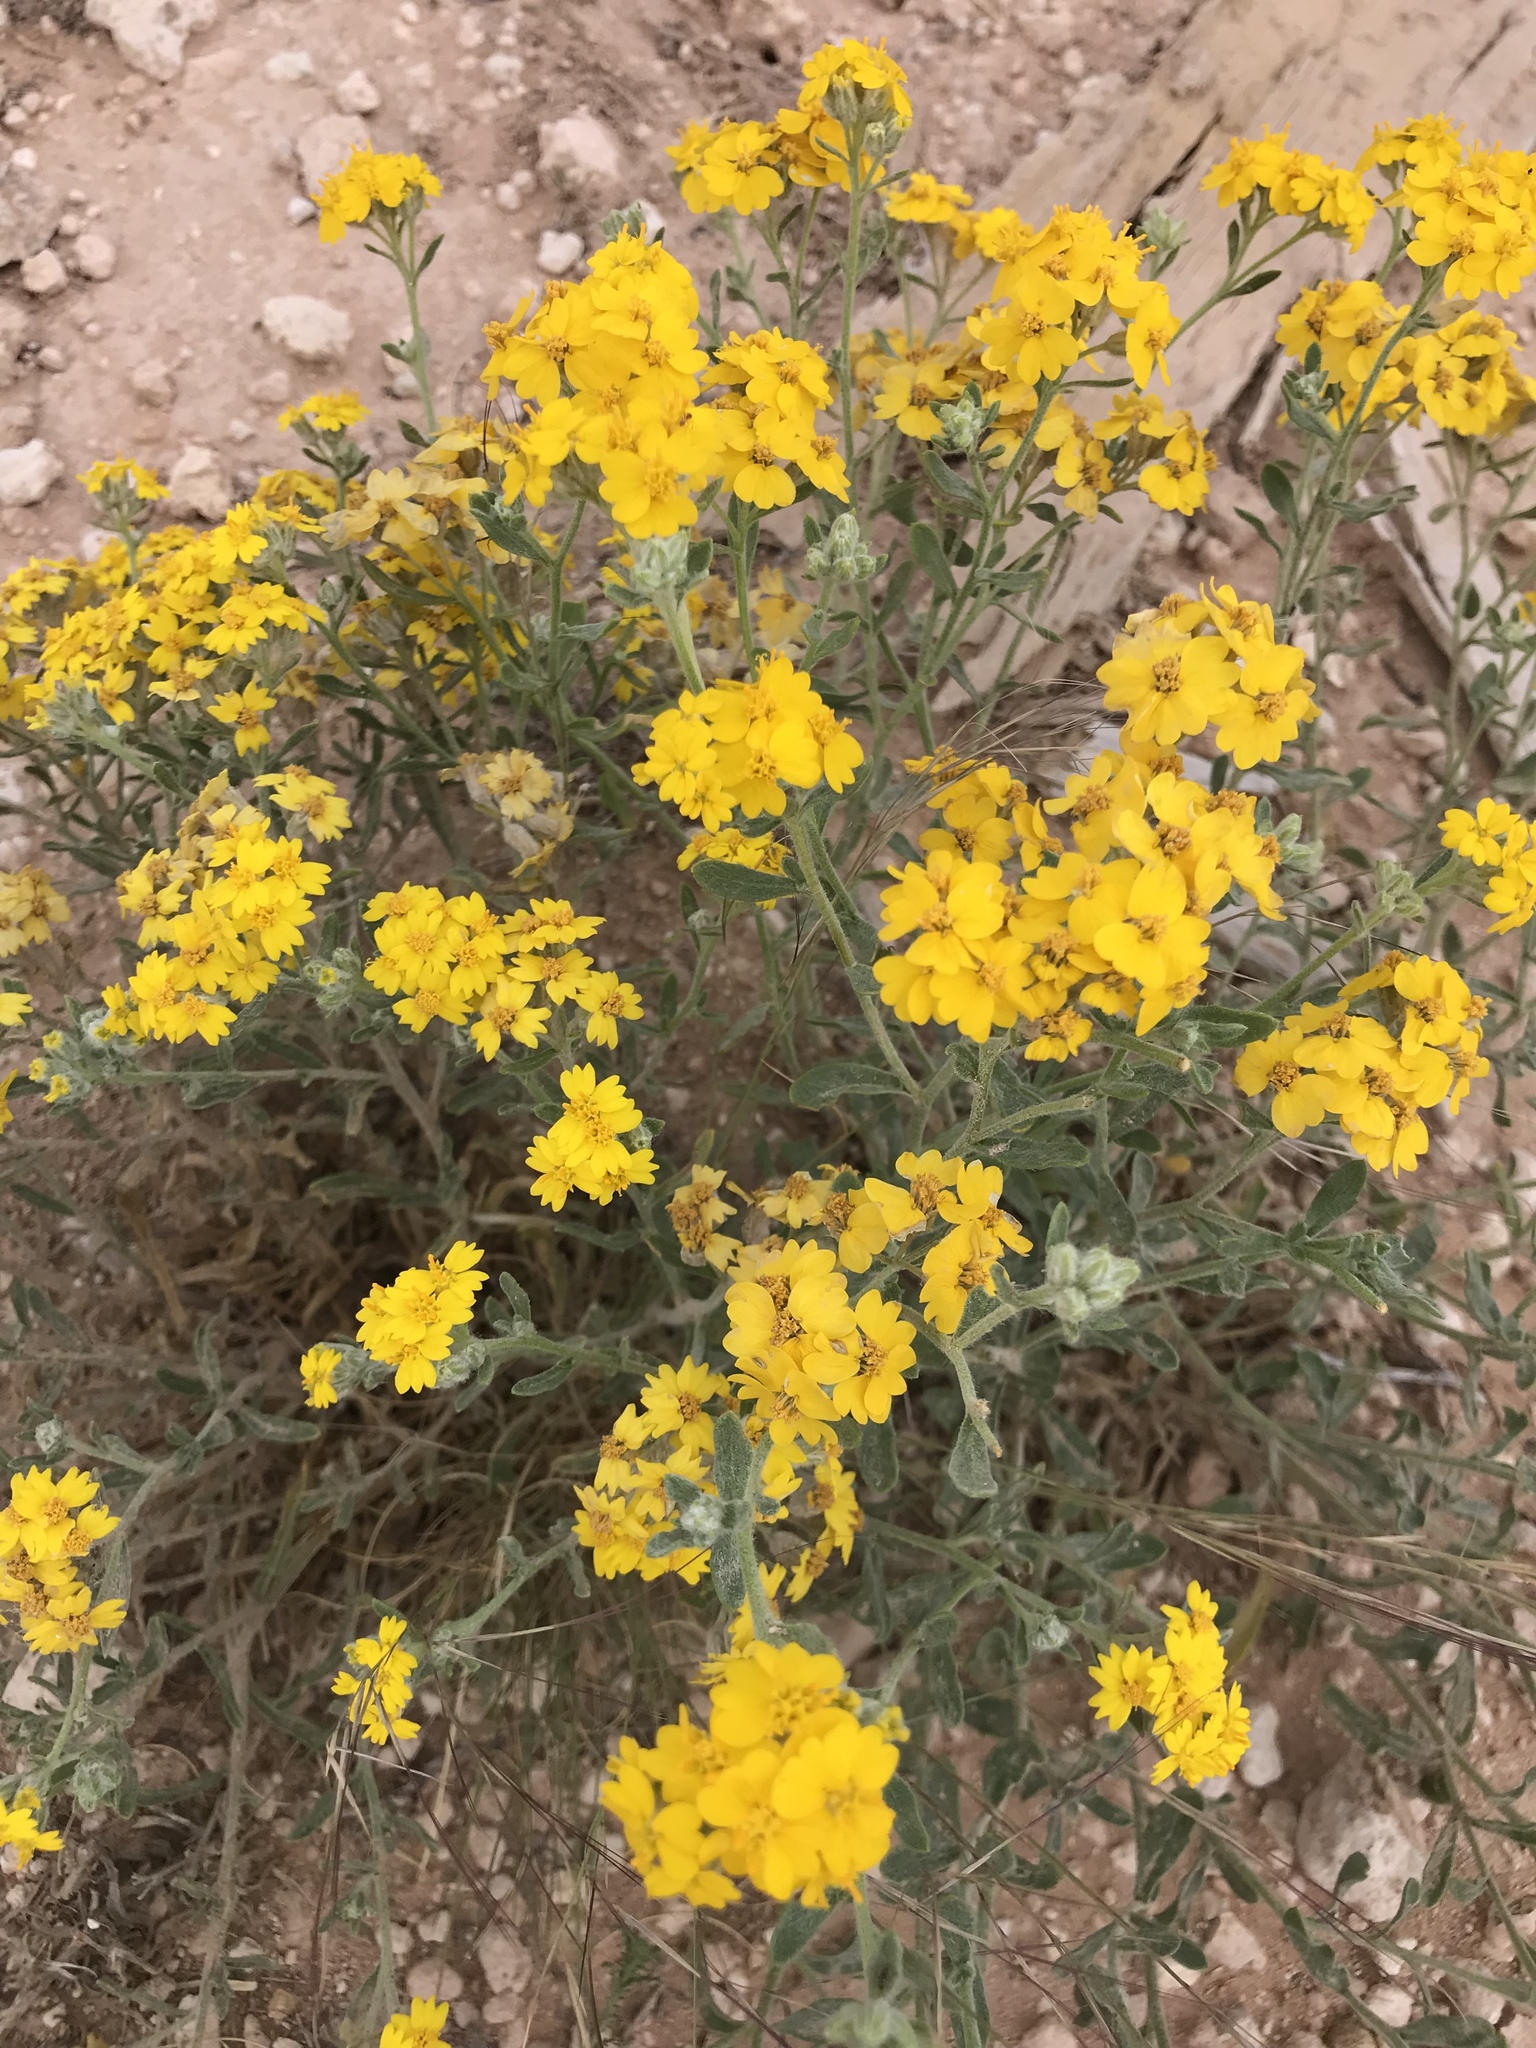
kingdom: Plantae
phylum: Tracheophyta
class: Magnoliopsida
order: Asterales
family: Asteraceae
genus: Psilostrophe
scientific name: Psilostrophe tagetina
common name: Marigold paper-flower
